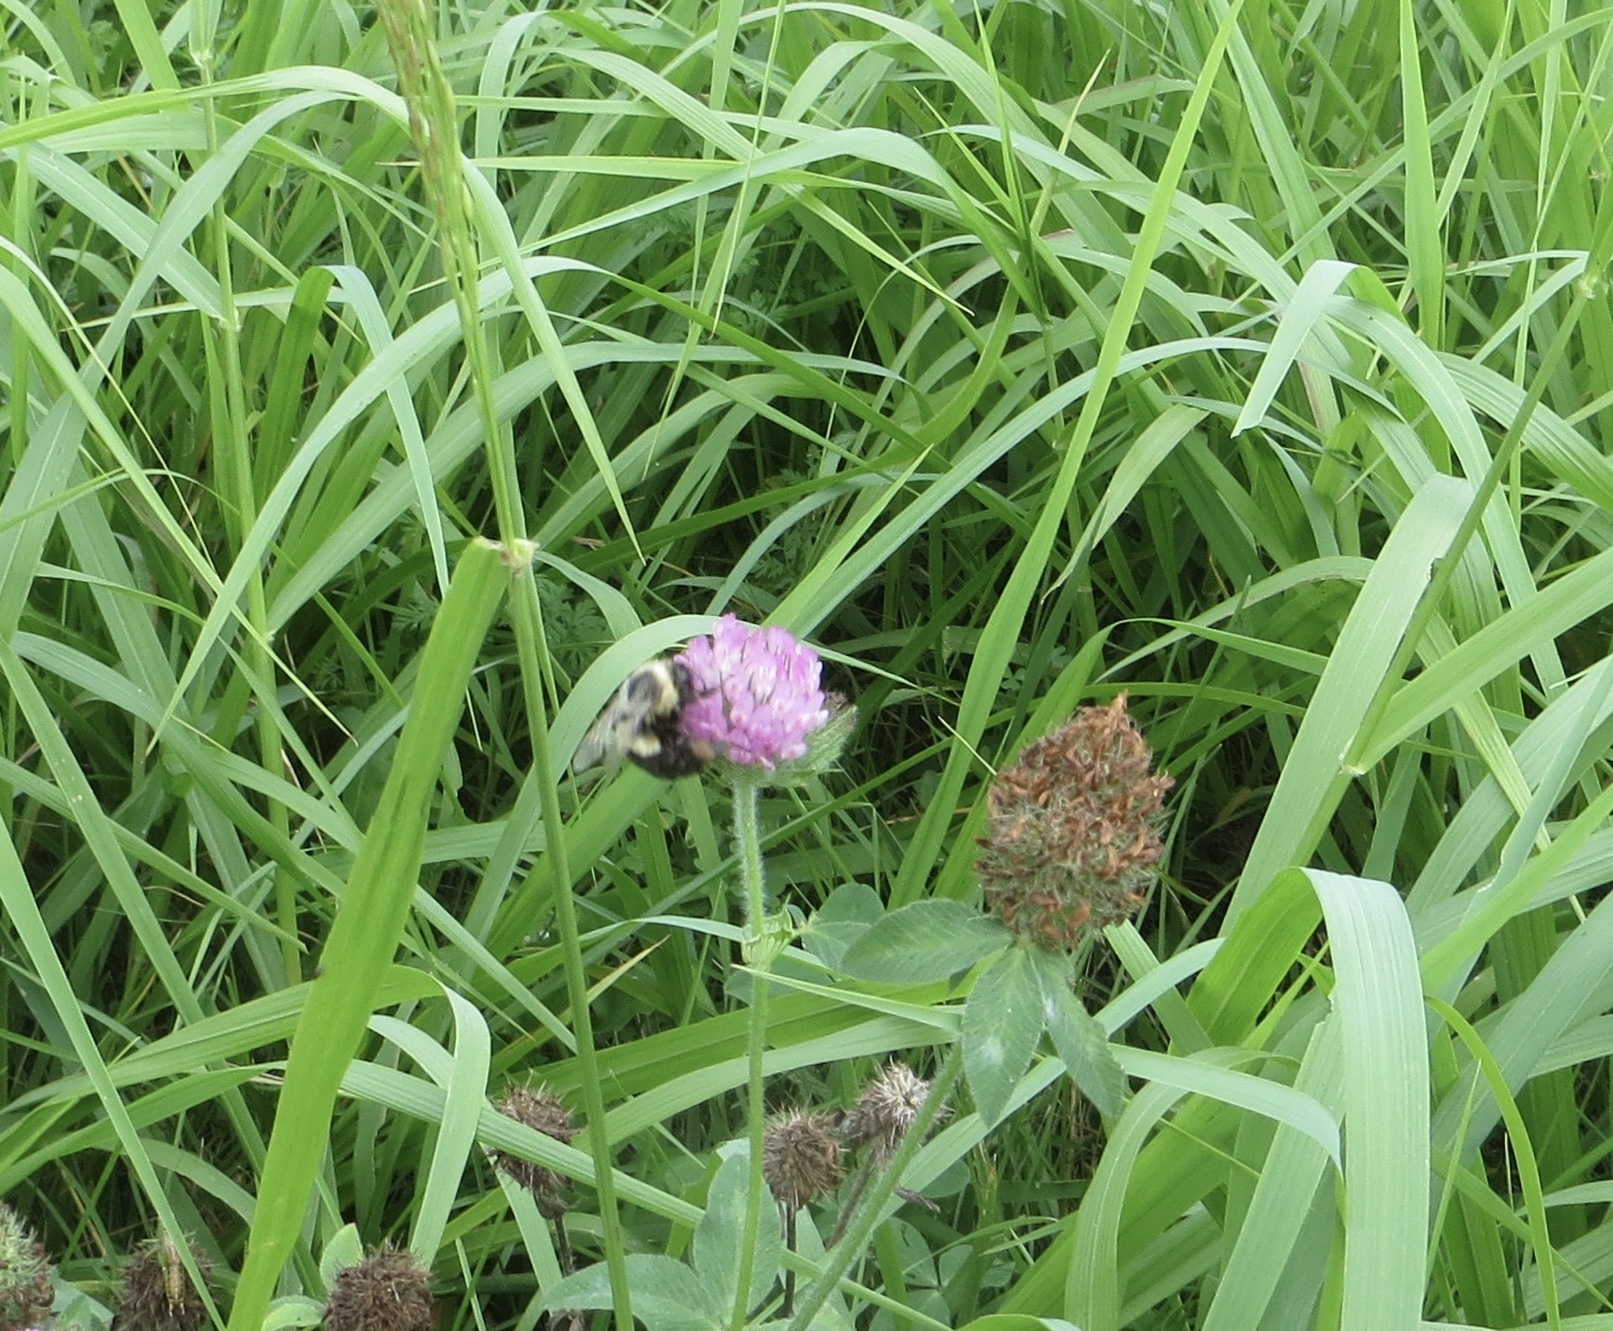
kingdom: Animalia
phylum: Arthropoda
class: Insecta
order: Hymenoptera
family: Apidae
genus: Bombus
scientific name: Bombus impatiens
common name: Common eastern bumble bee
